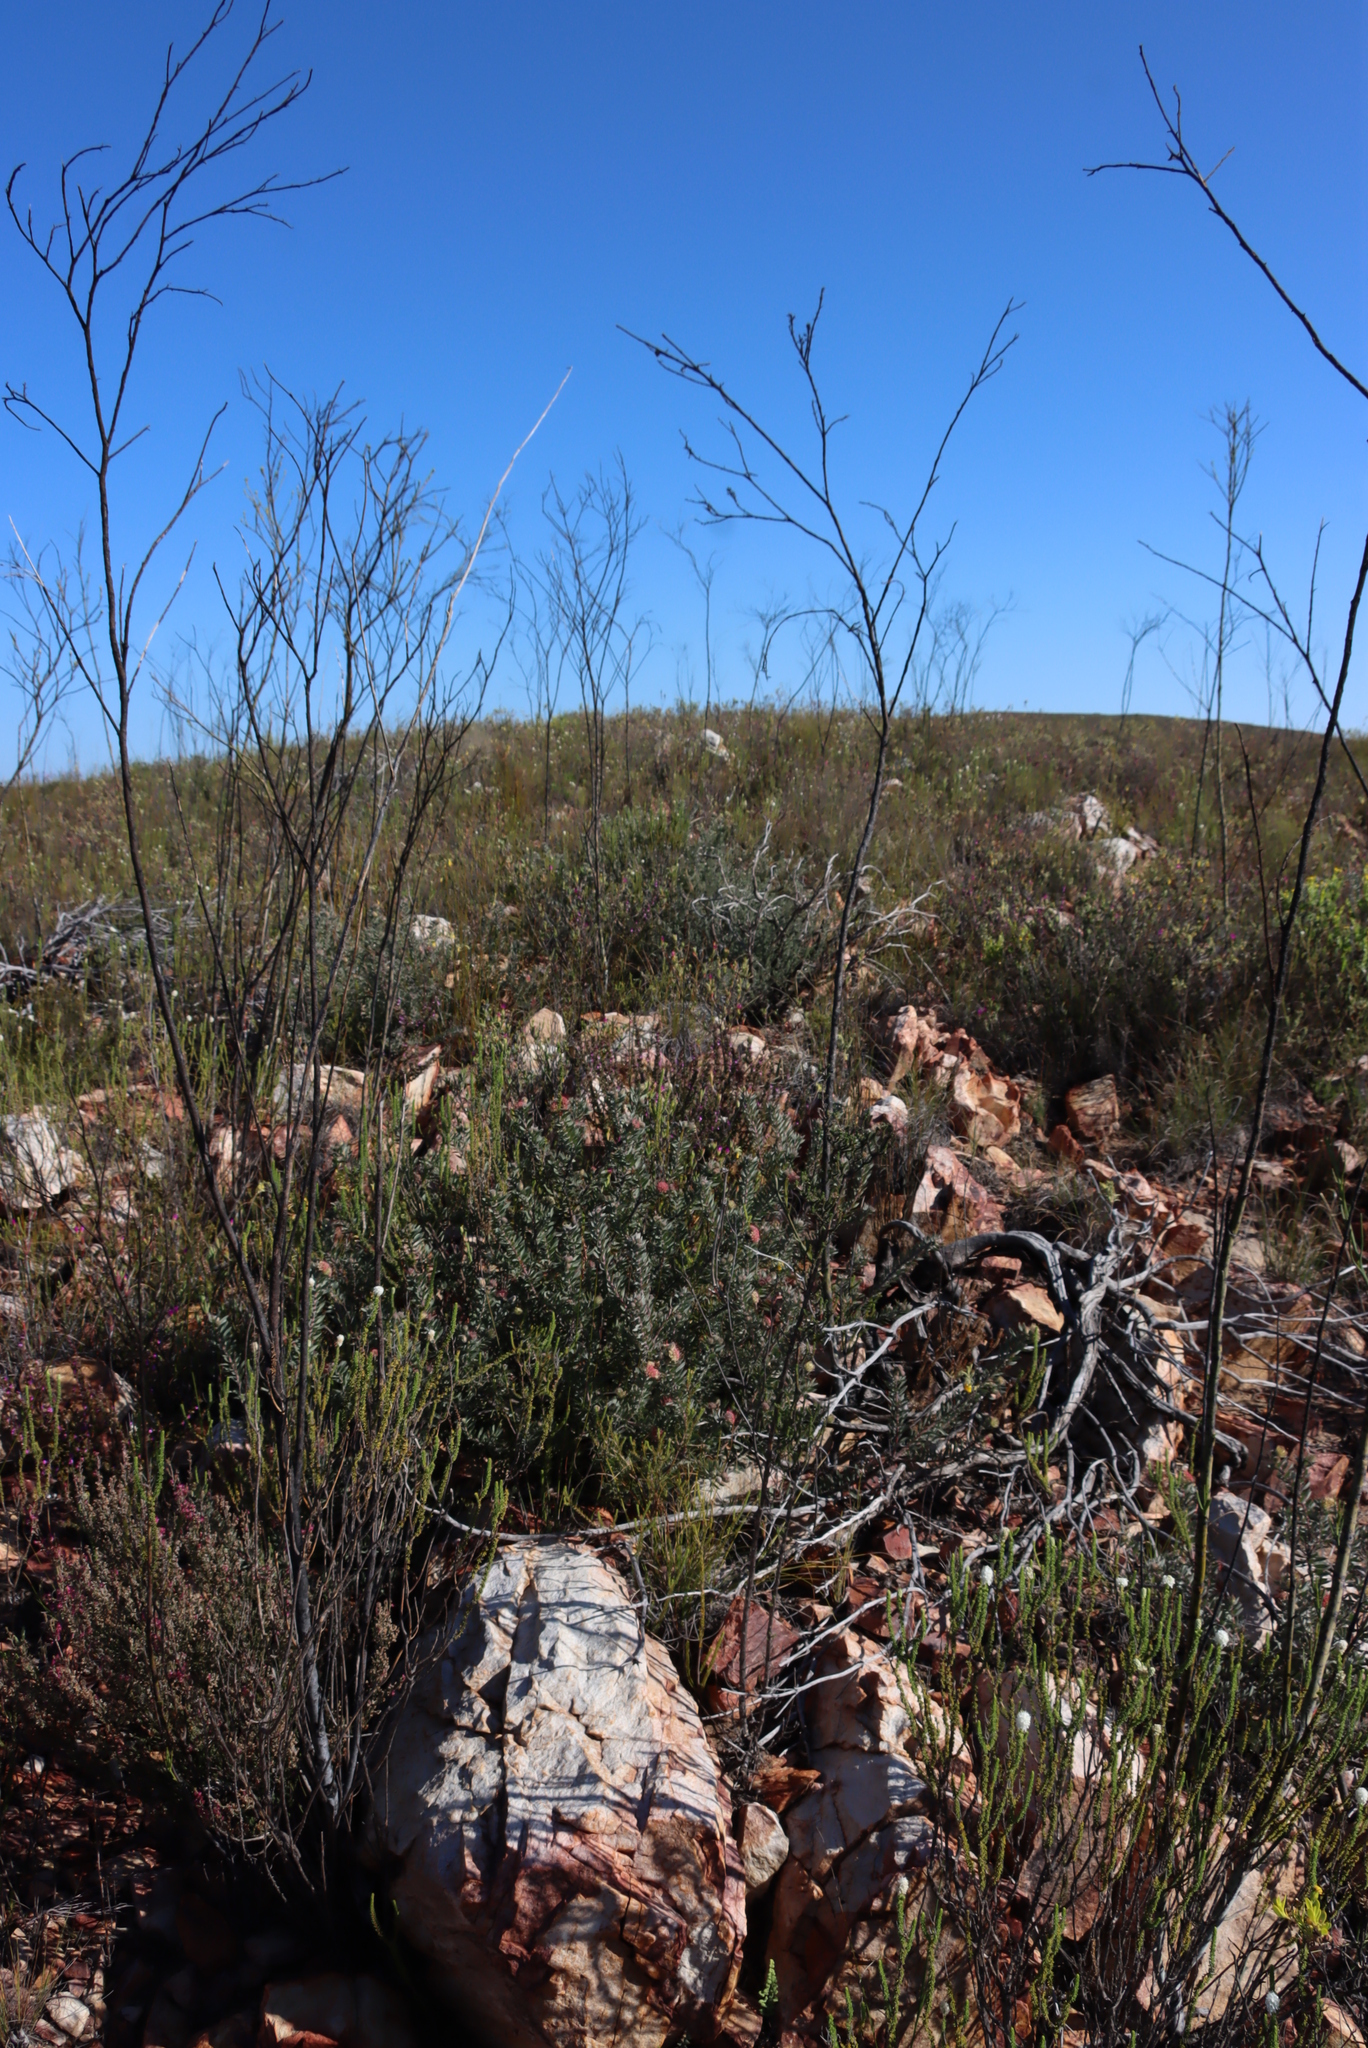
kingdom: Plantae
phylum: Tracheophyta
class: Magnoliopsida
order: Proteales
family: Proteaceae
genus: Leucospermum
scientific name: Leucospermum wittebergense
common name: Swartberg pincushion
